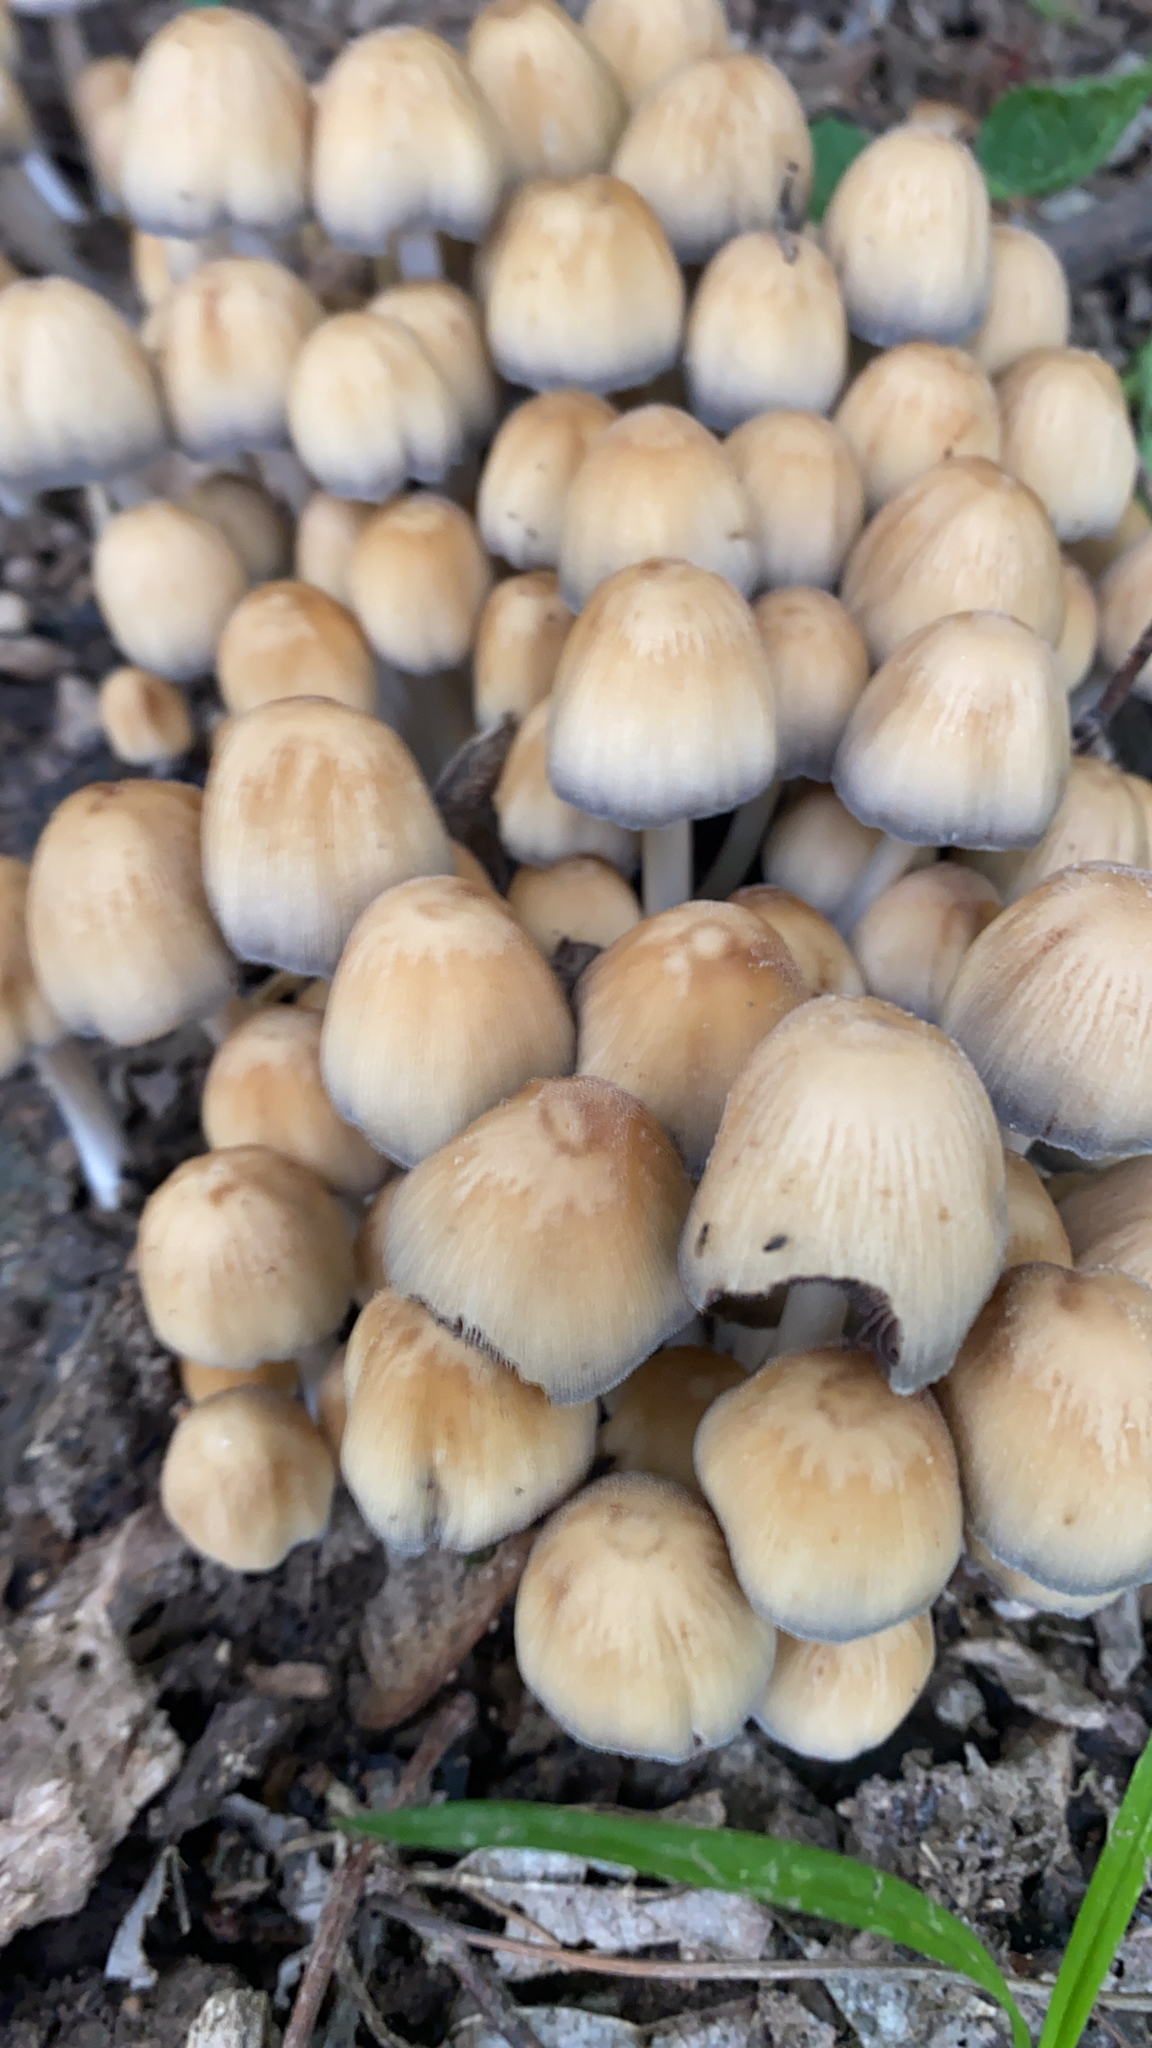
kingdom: Fungi
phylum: Basidiomycota
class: Agaricomycetes
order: Agaricales
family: Psathyrellaceae
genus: Coprinellus
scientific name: Coprinellus micaceus
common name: Glistening ink-cap
